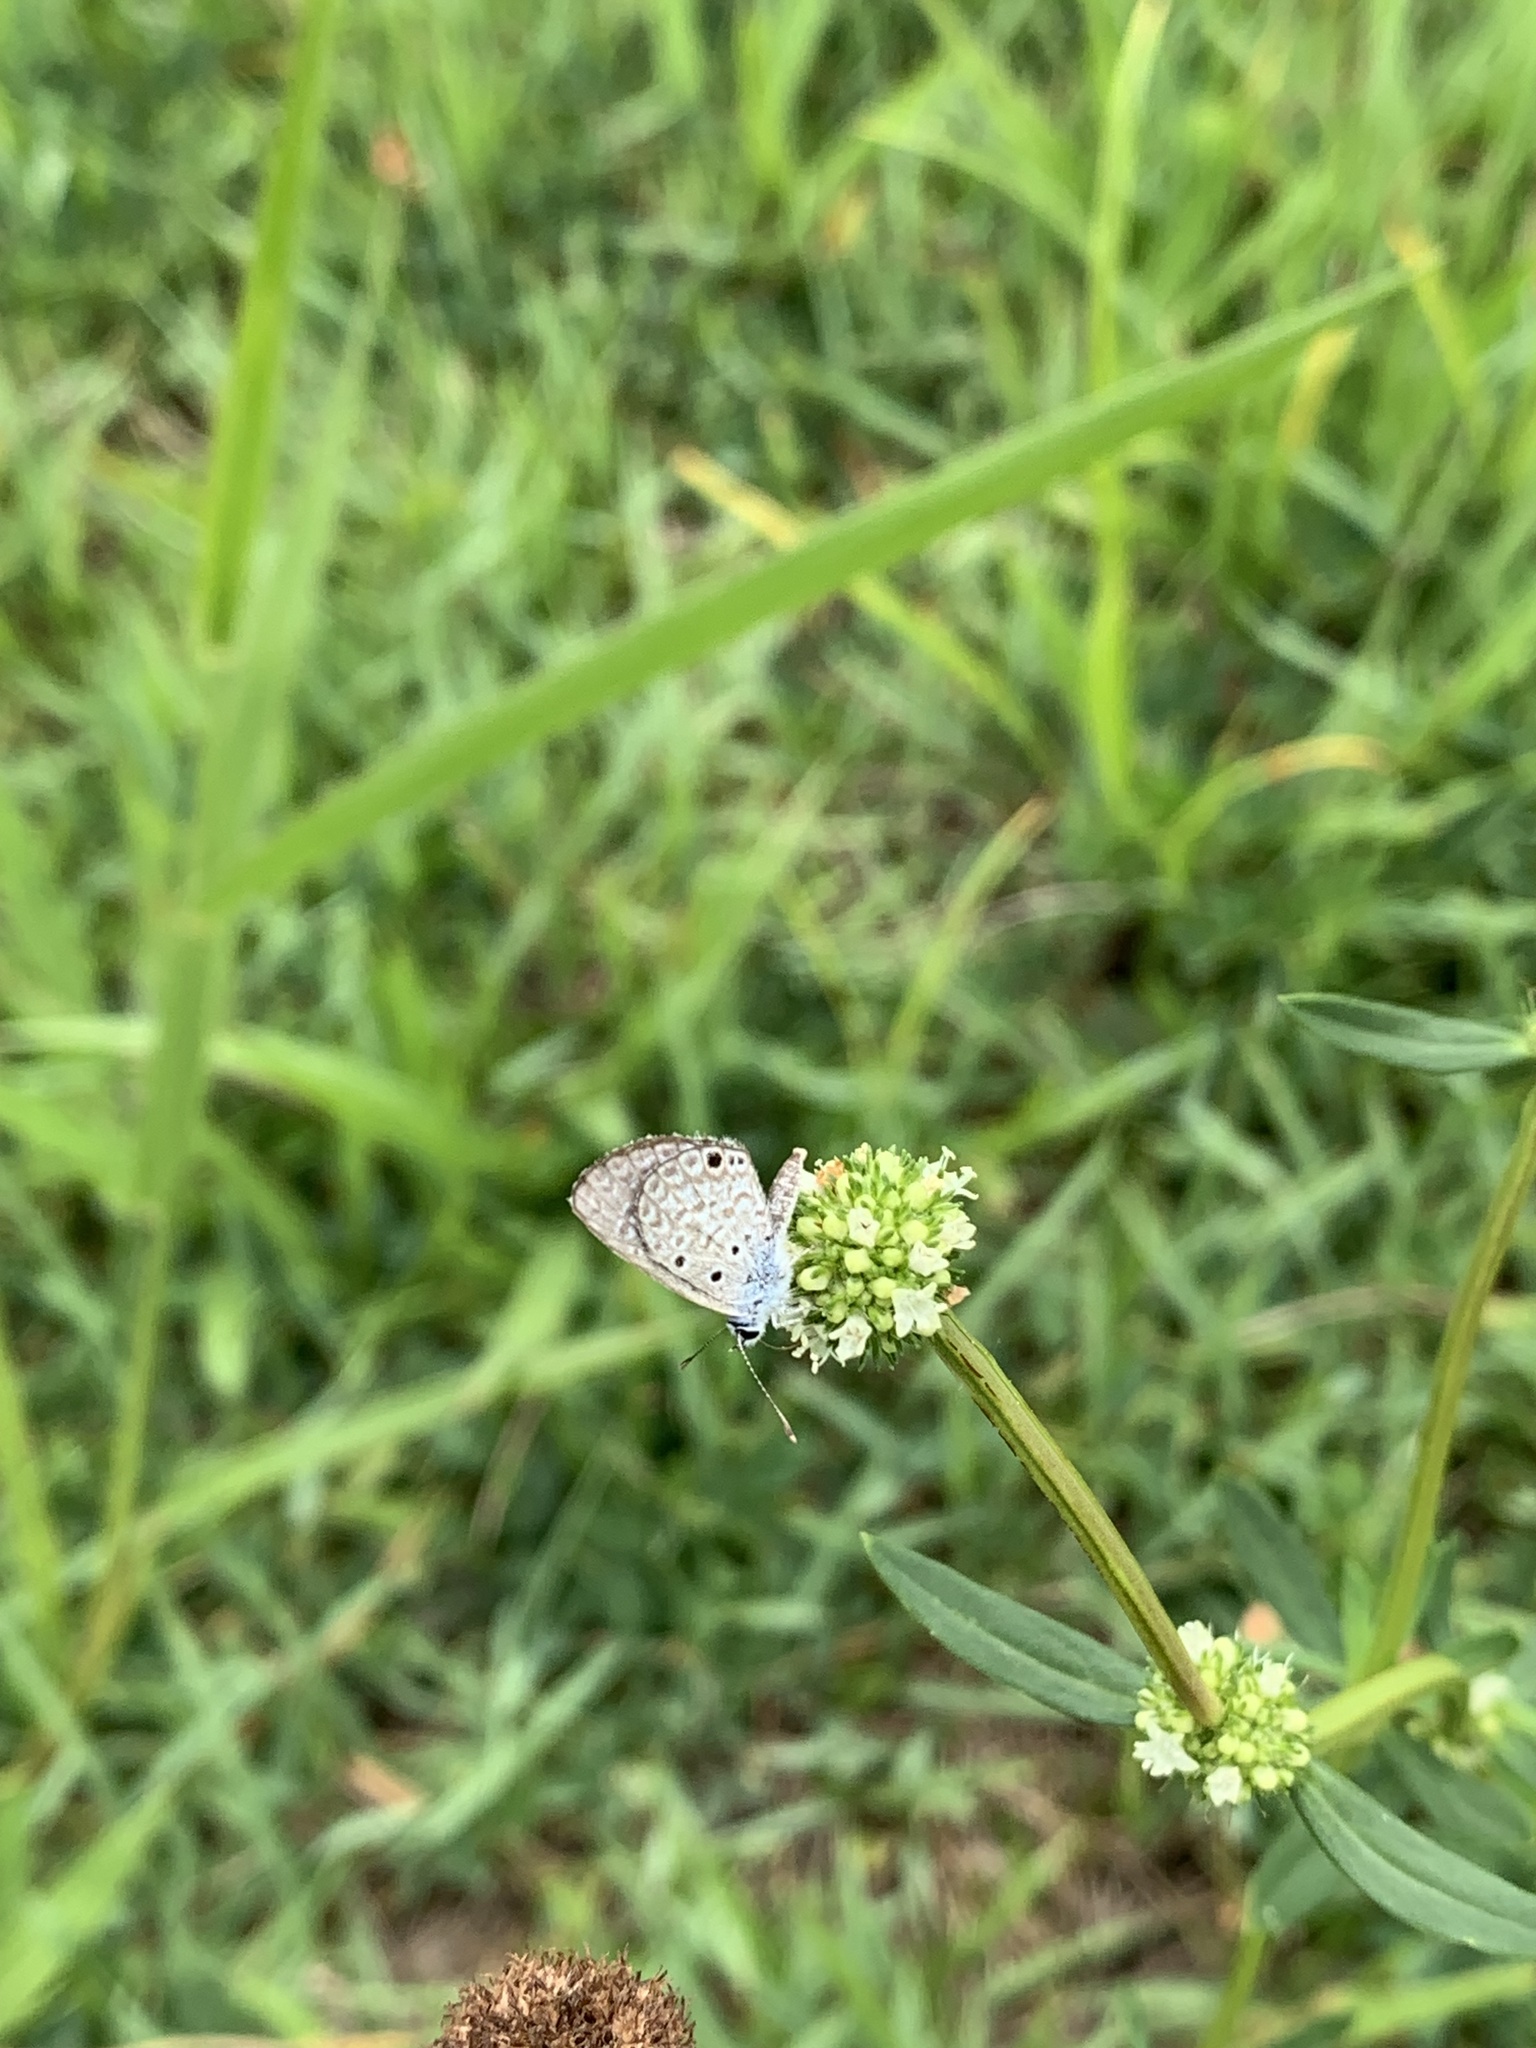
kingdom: Animalia
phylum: Arthropoda
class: Insecta
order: Lepidoptera
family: Lycaenidae
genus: Hemiargus
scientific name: Hemiargus hanno
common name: Common blue
